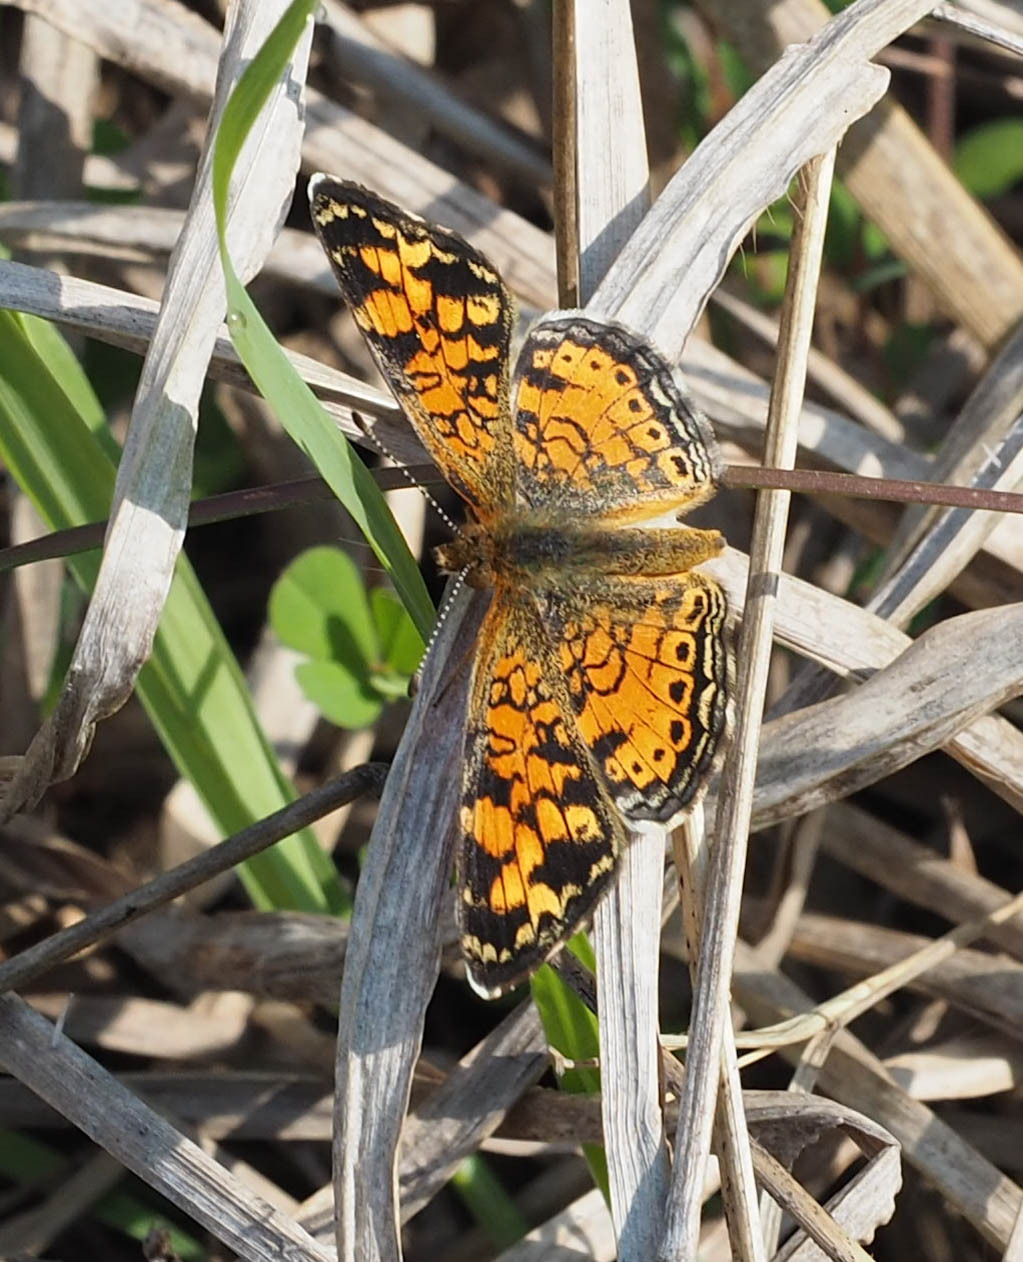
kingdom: Animalia
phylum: Arthropoda
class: Insecta
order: Lepidoptera
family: Nymphalidae
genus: Phyciodes
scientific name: Phyciodes tharos
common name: Pearl crescent
